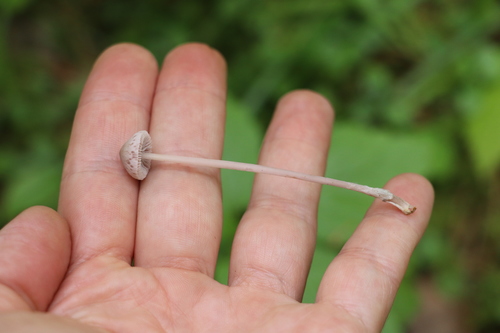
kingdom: Fungi
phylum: Basidiomycota
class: Agaricomycetes
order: Agaricales
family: Mycenaceae
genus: Mycena
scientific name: Mycena
